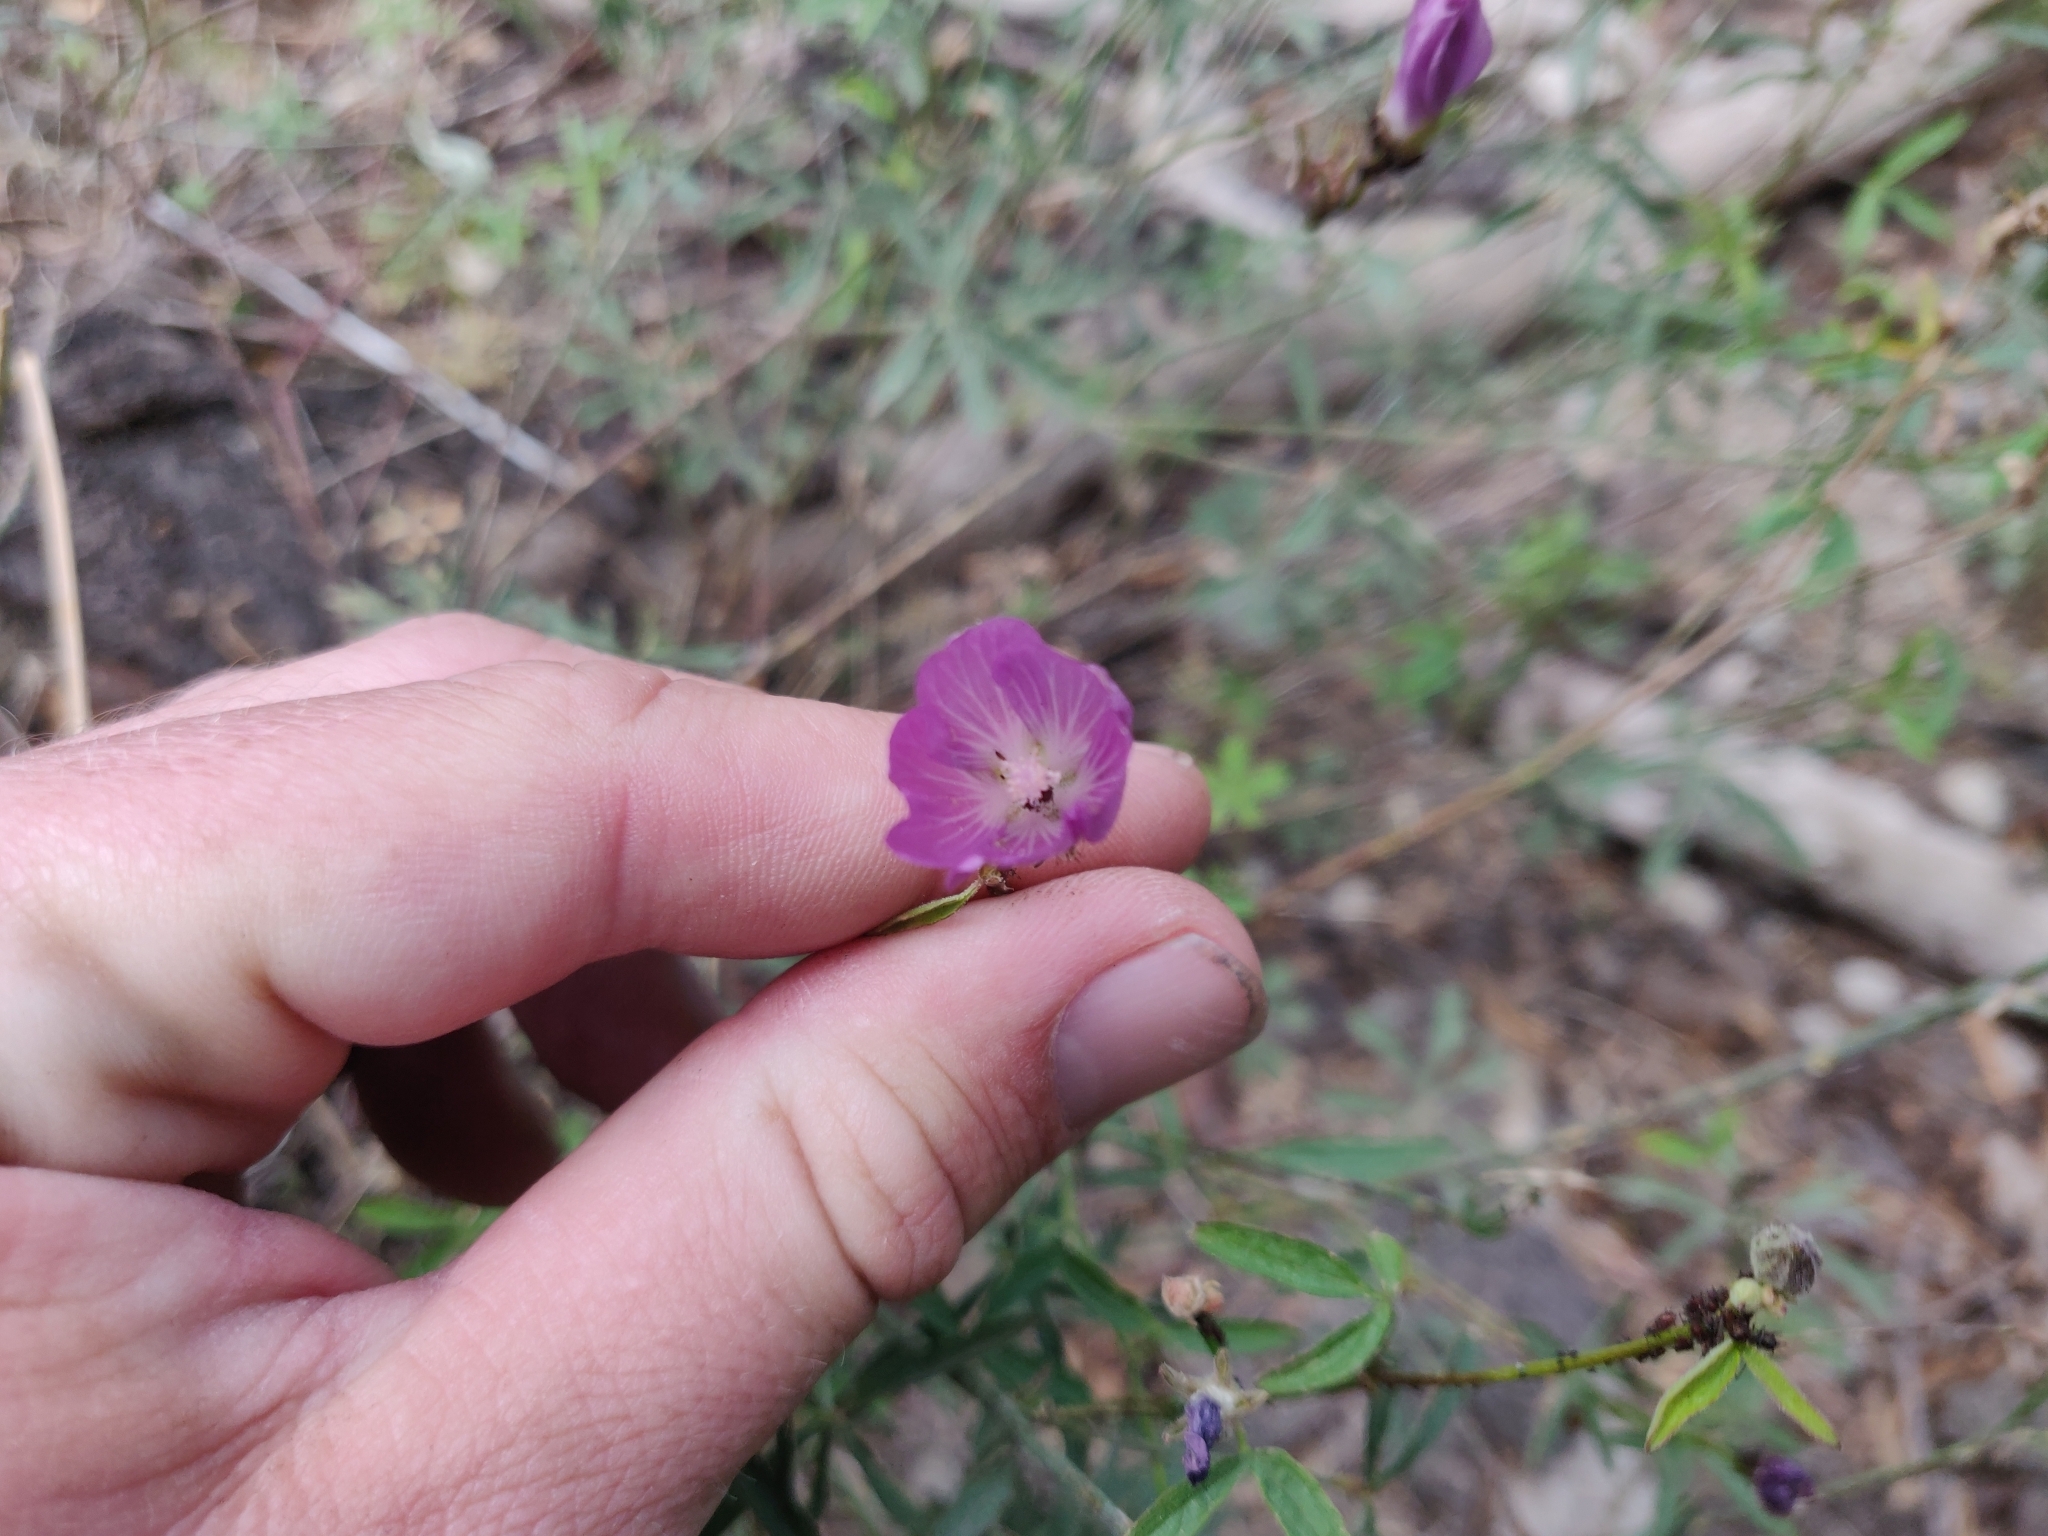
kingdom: Plantae
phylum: Tracheophyta
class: Magnoliopsida
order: Malvales
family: Malvaceae
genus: Sidalcea
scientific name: Sidalcea glaucescens
